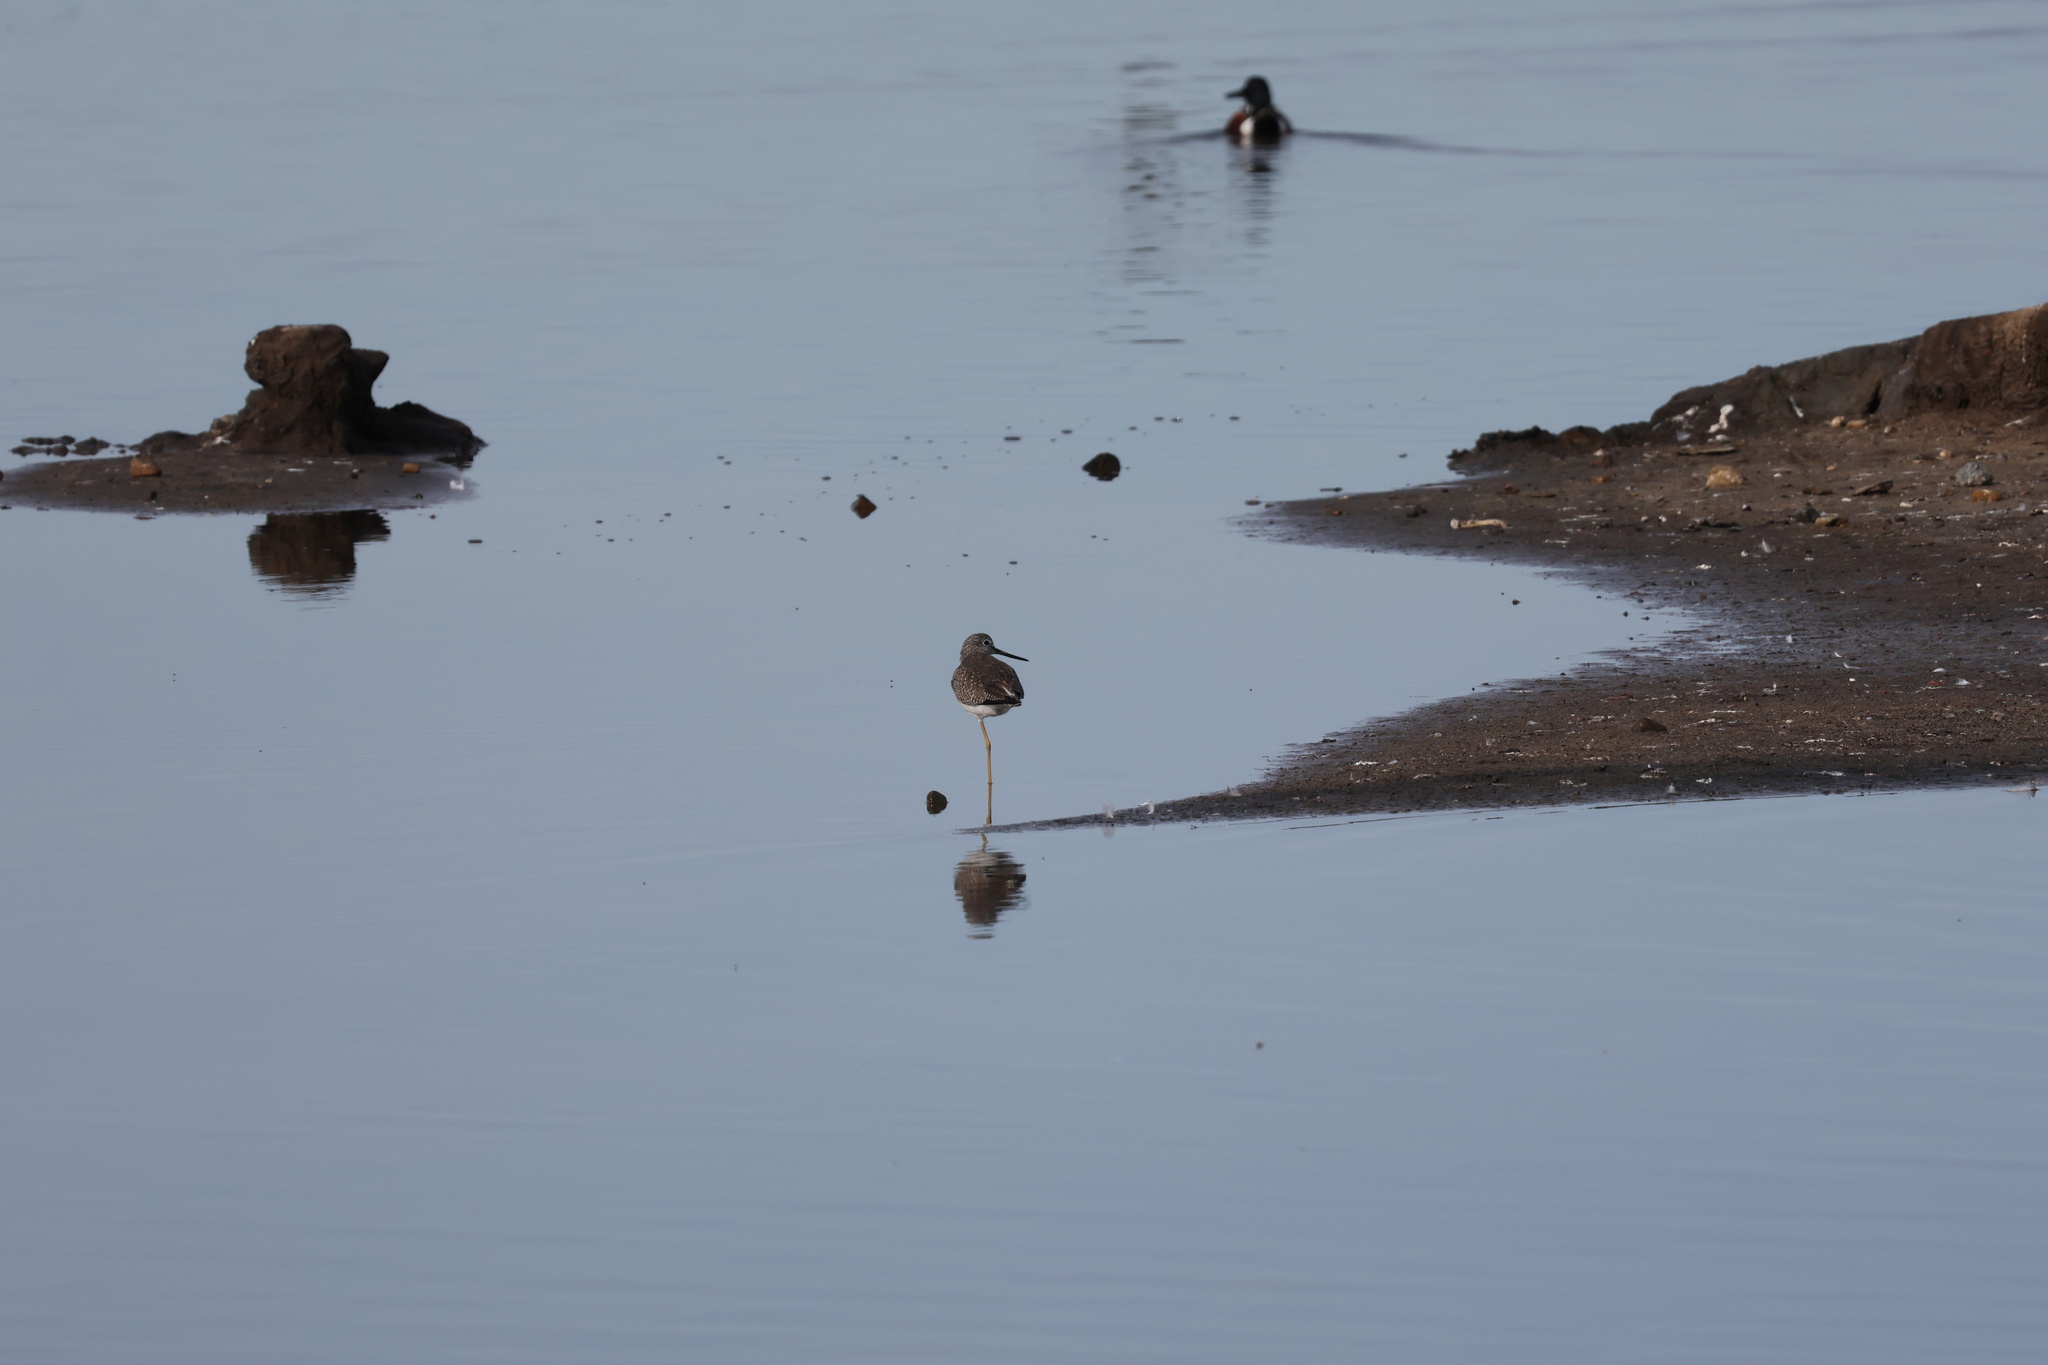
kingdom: Animalia
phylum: Chordata
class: Aves
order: Charadriiformes
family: Scolopacidae
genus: Tringa
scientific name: Tringa melanoleuca
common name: Greater yellowlegs
